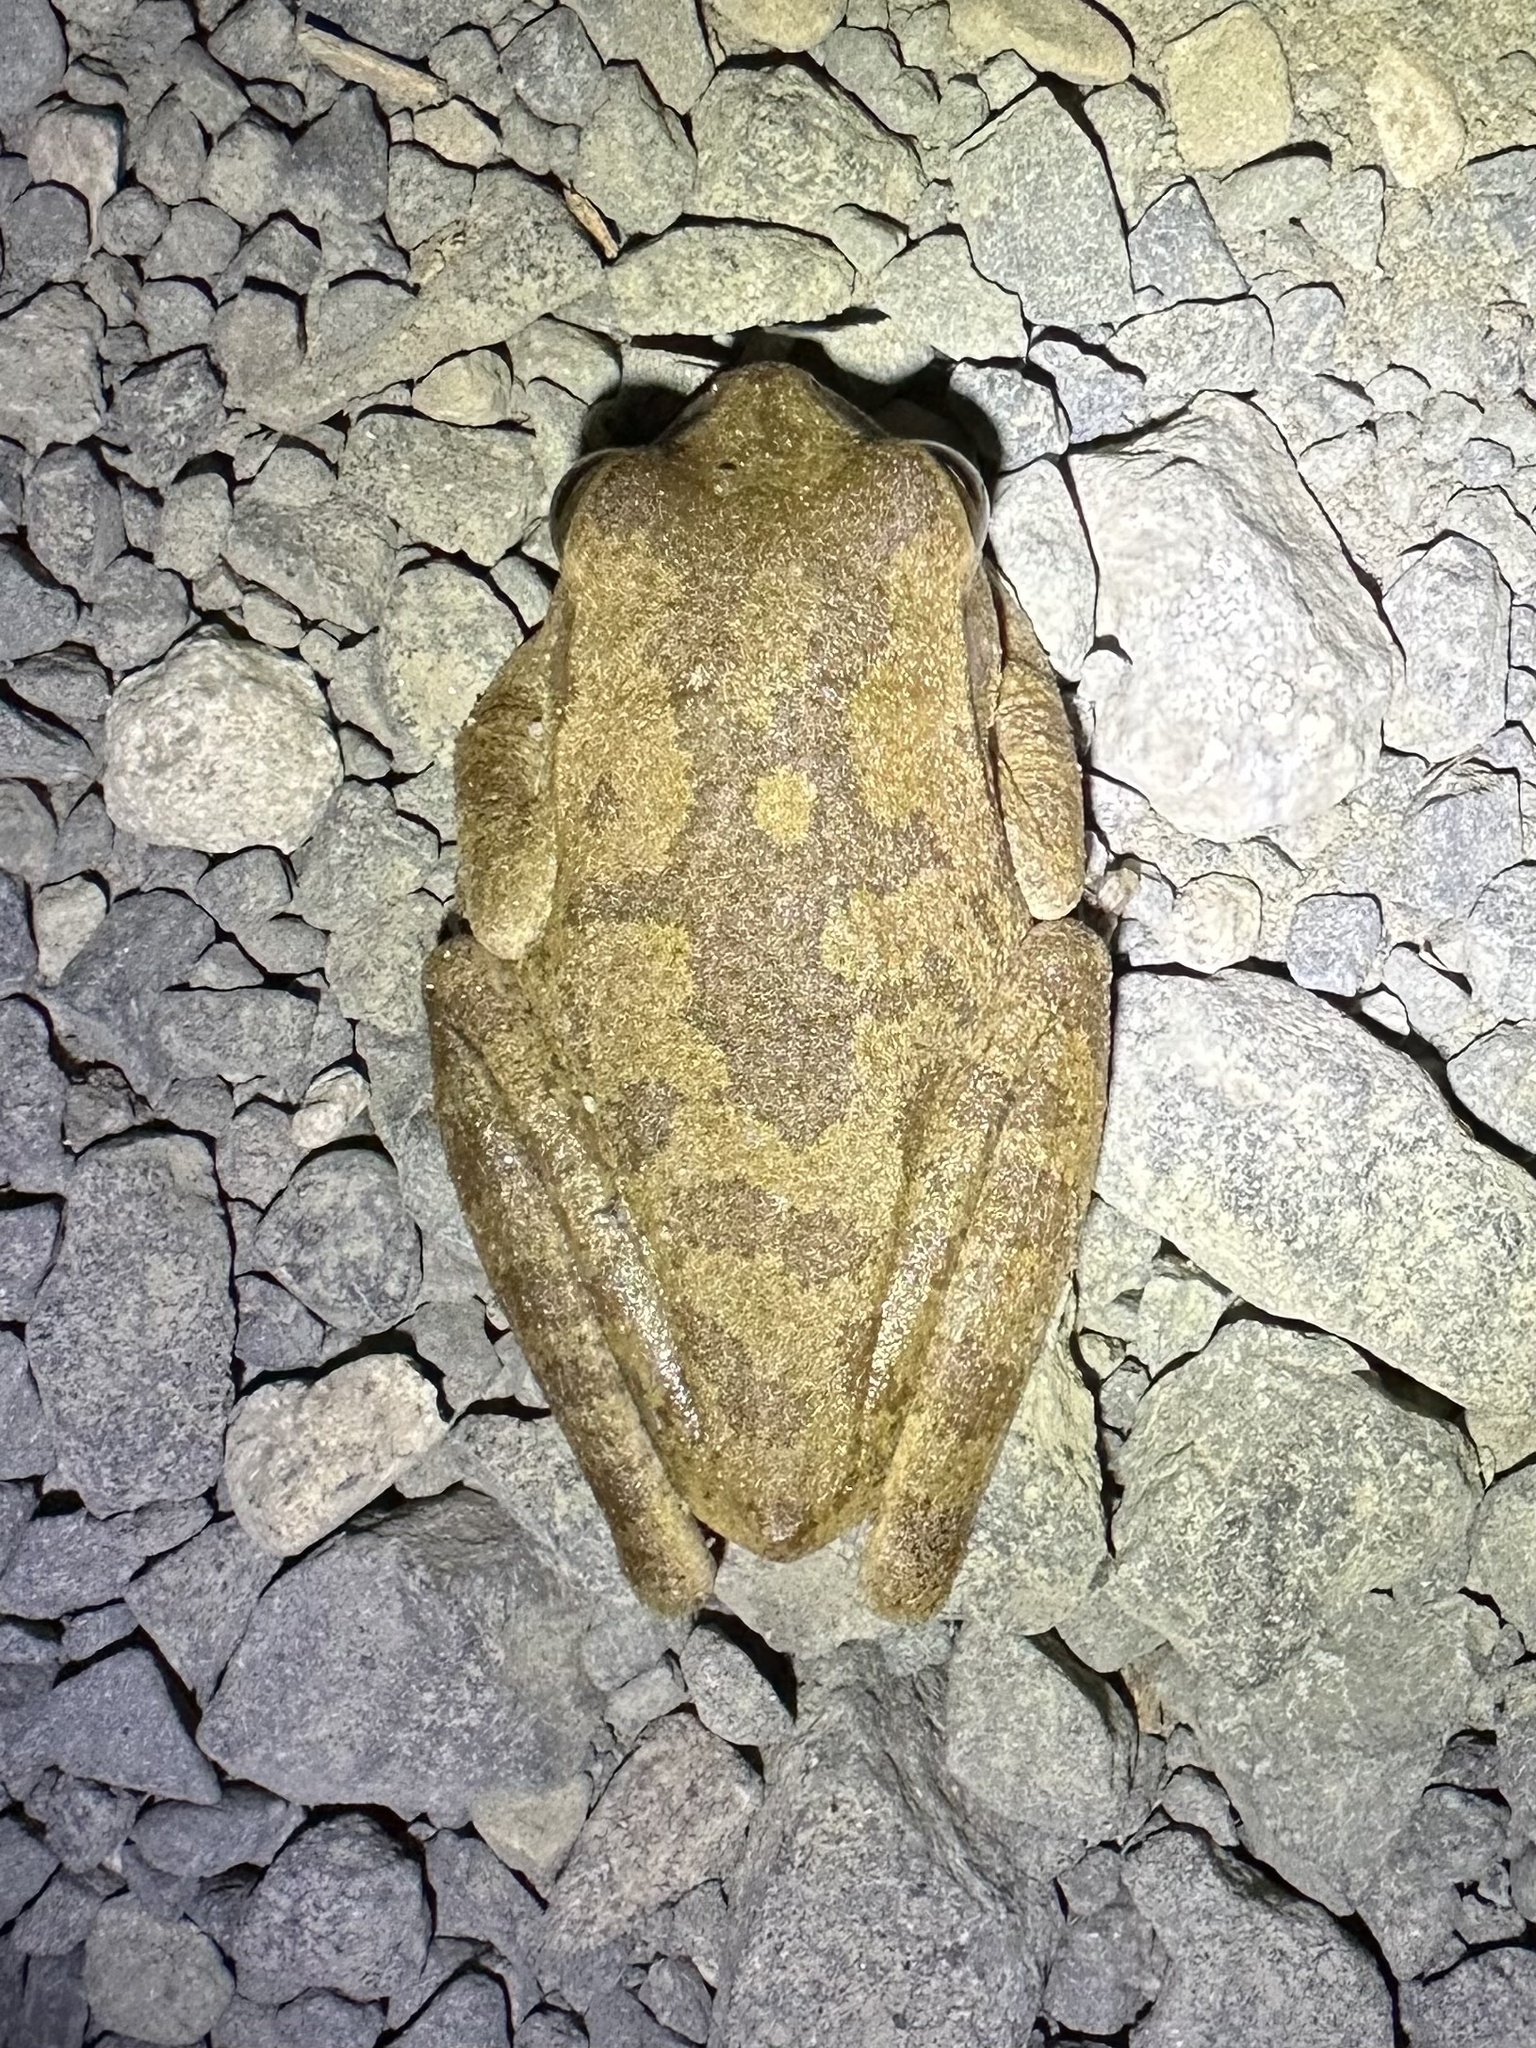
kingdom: Animalia
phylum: Chordata
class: Amphibia
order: Anura
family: Hylidae
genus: Smilisca
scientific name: Smilisca sordida
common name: Veragua cross-banded treefrog
